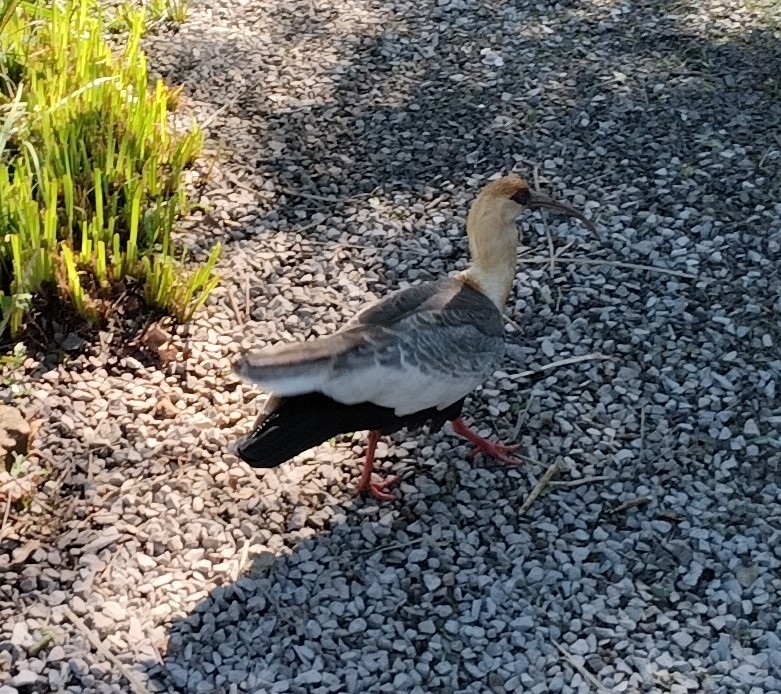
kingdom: Animalia
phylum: Chordata
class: Aves
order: Pelecaniformes
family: Threskiornithidae
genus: Theristicus
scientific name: Theristicus caudatus
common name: Buff-necked ibis
